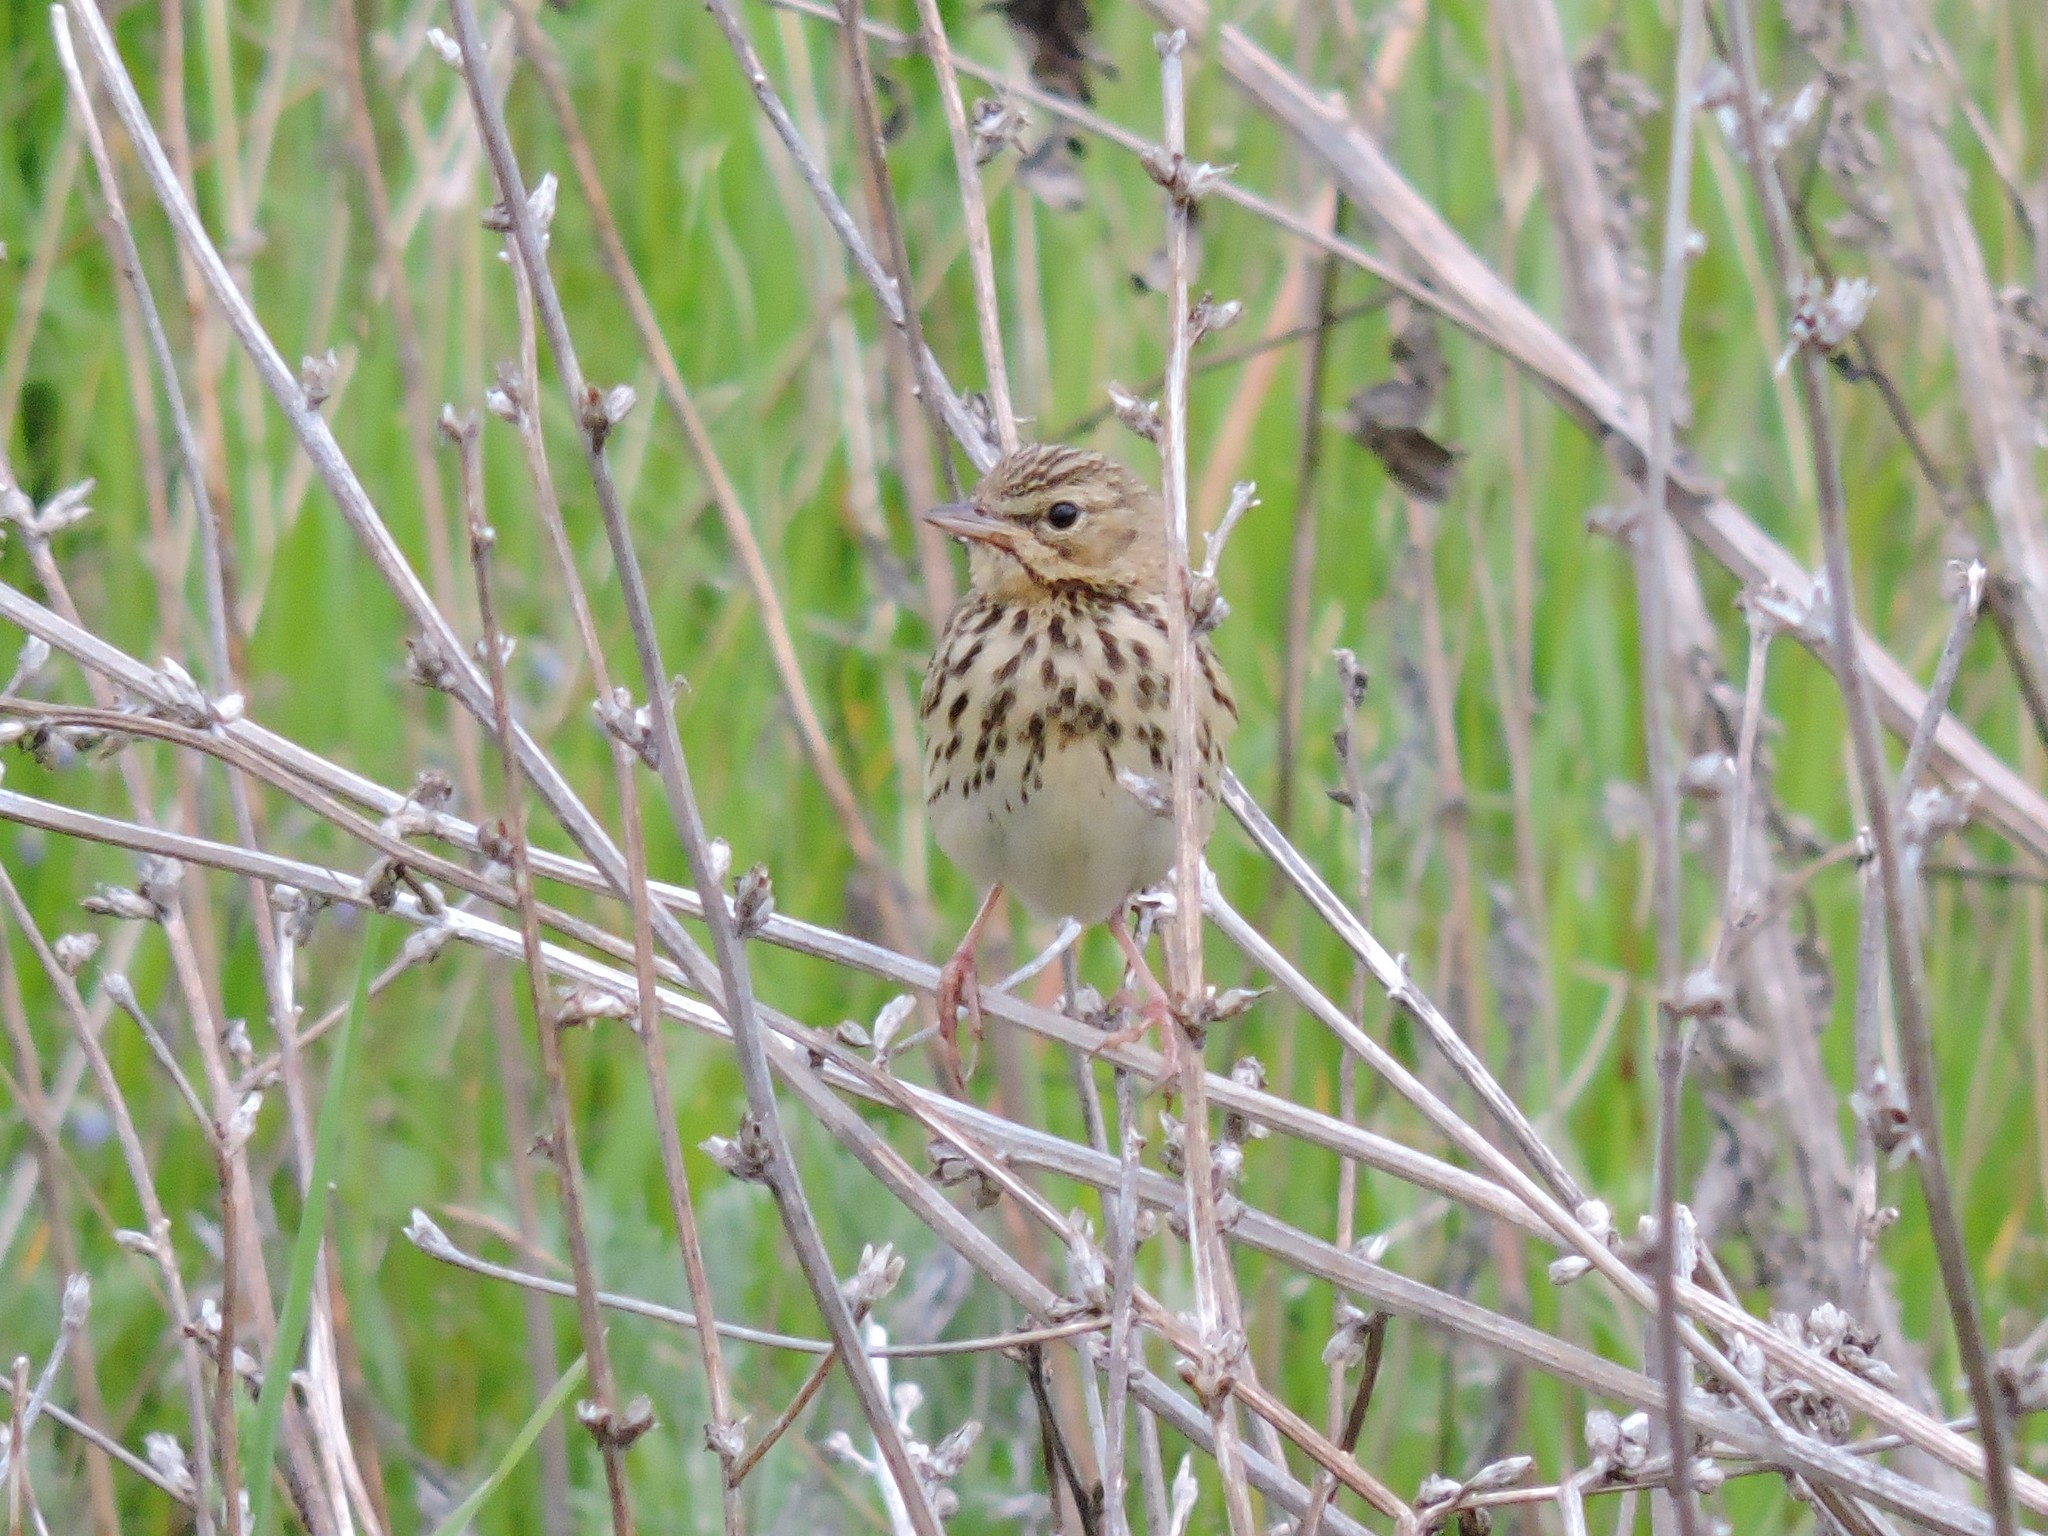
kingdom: Animalia
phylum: Chordata
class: Aves
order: Passeriformes
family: Motacillidae
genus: Anthus
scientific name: Anthus trivialis
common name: Tree pipit
